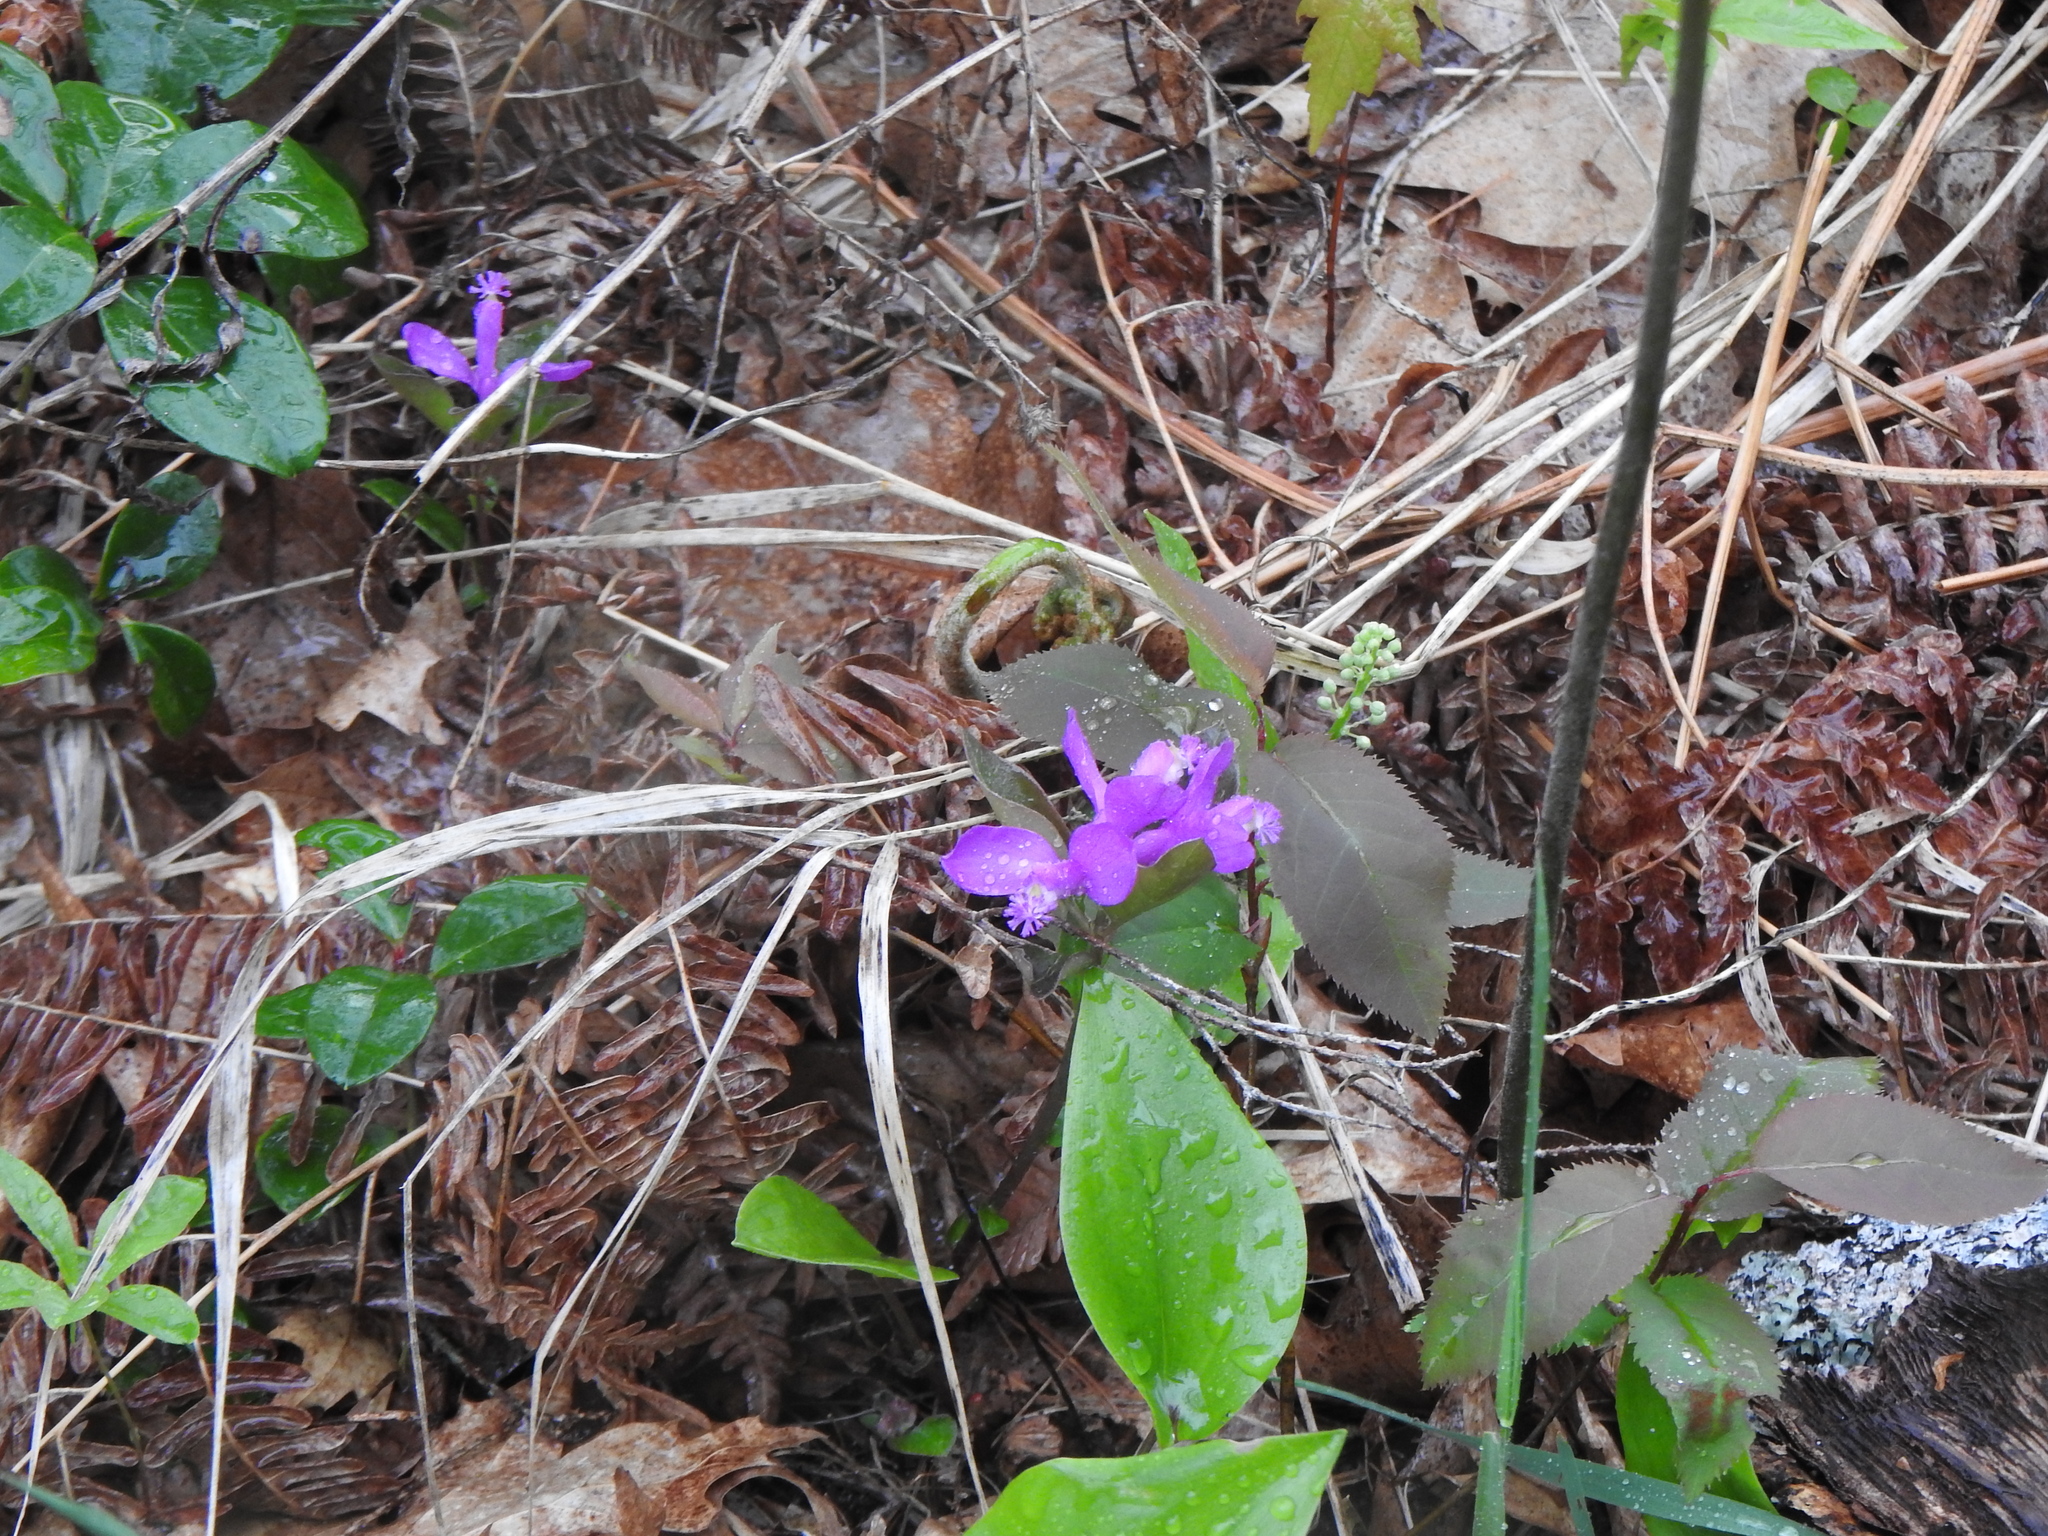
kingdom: Plantae
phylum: Tracheophyta
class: Magnoliopsida
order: Fabales
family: Polygalaceae
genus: Polygaloides
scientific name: Polygaloides paucifolia
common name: Bird-on-the-wing
